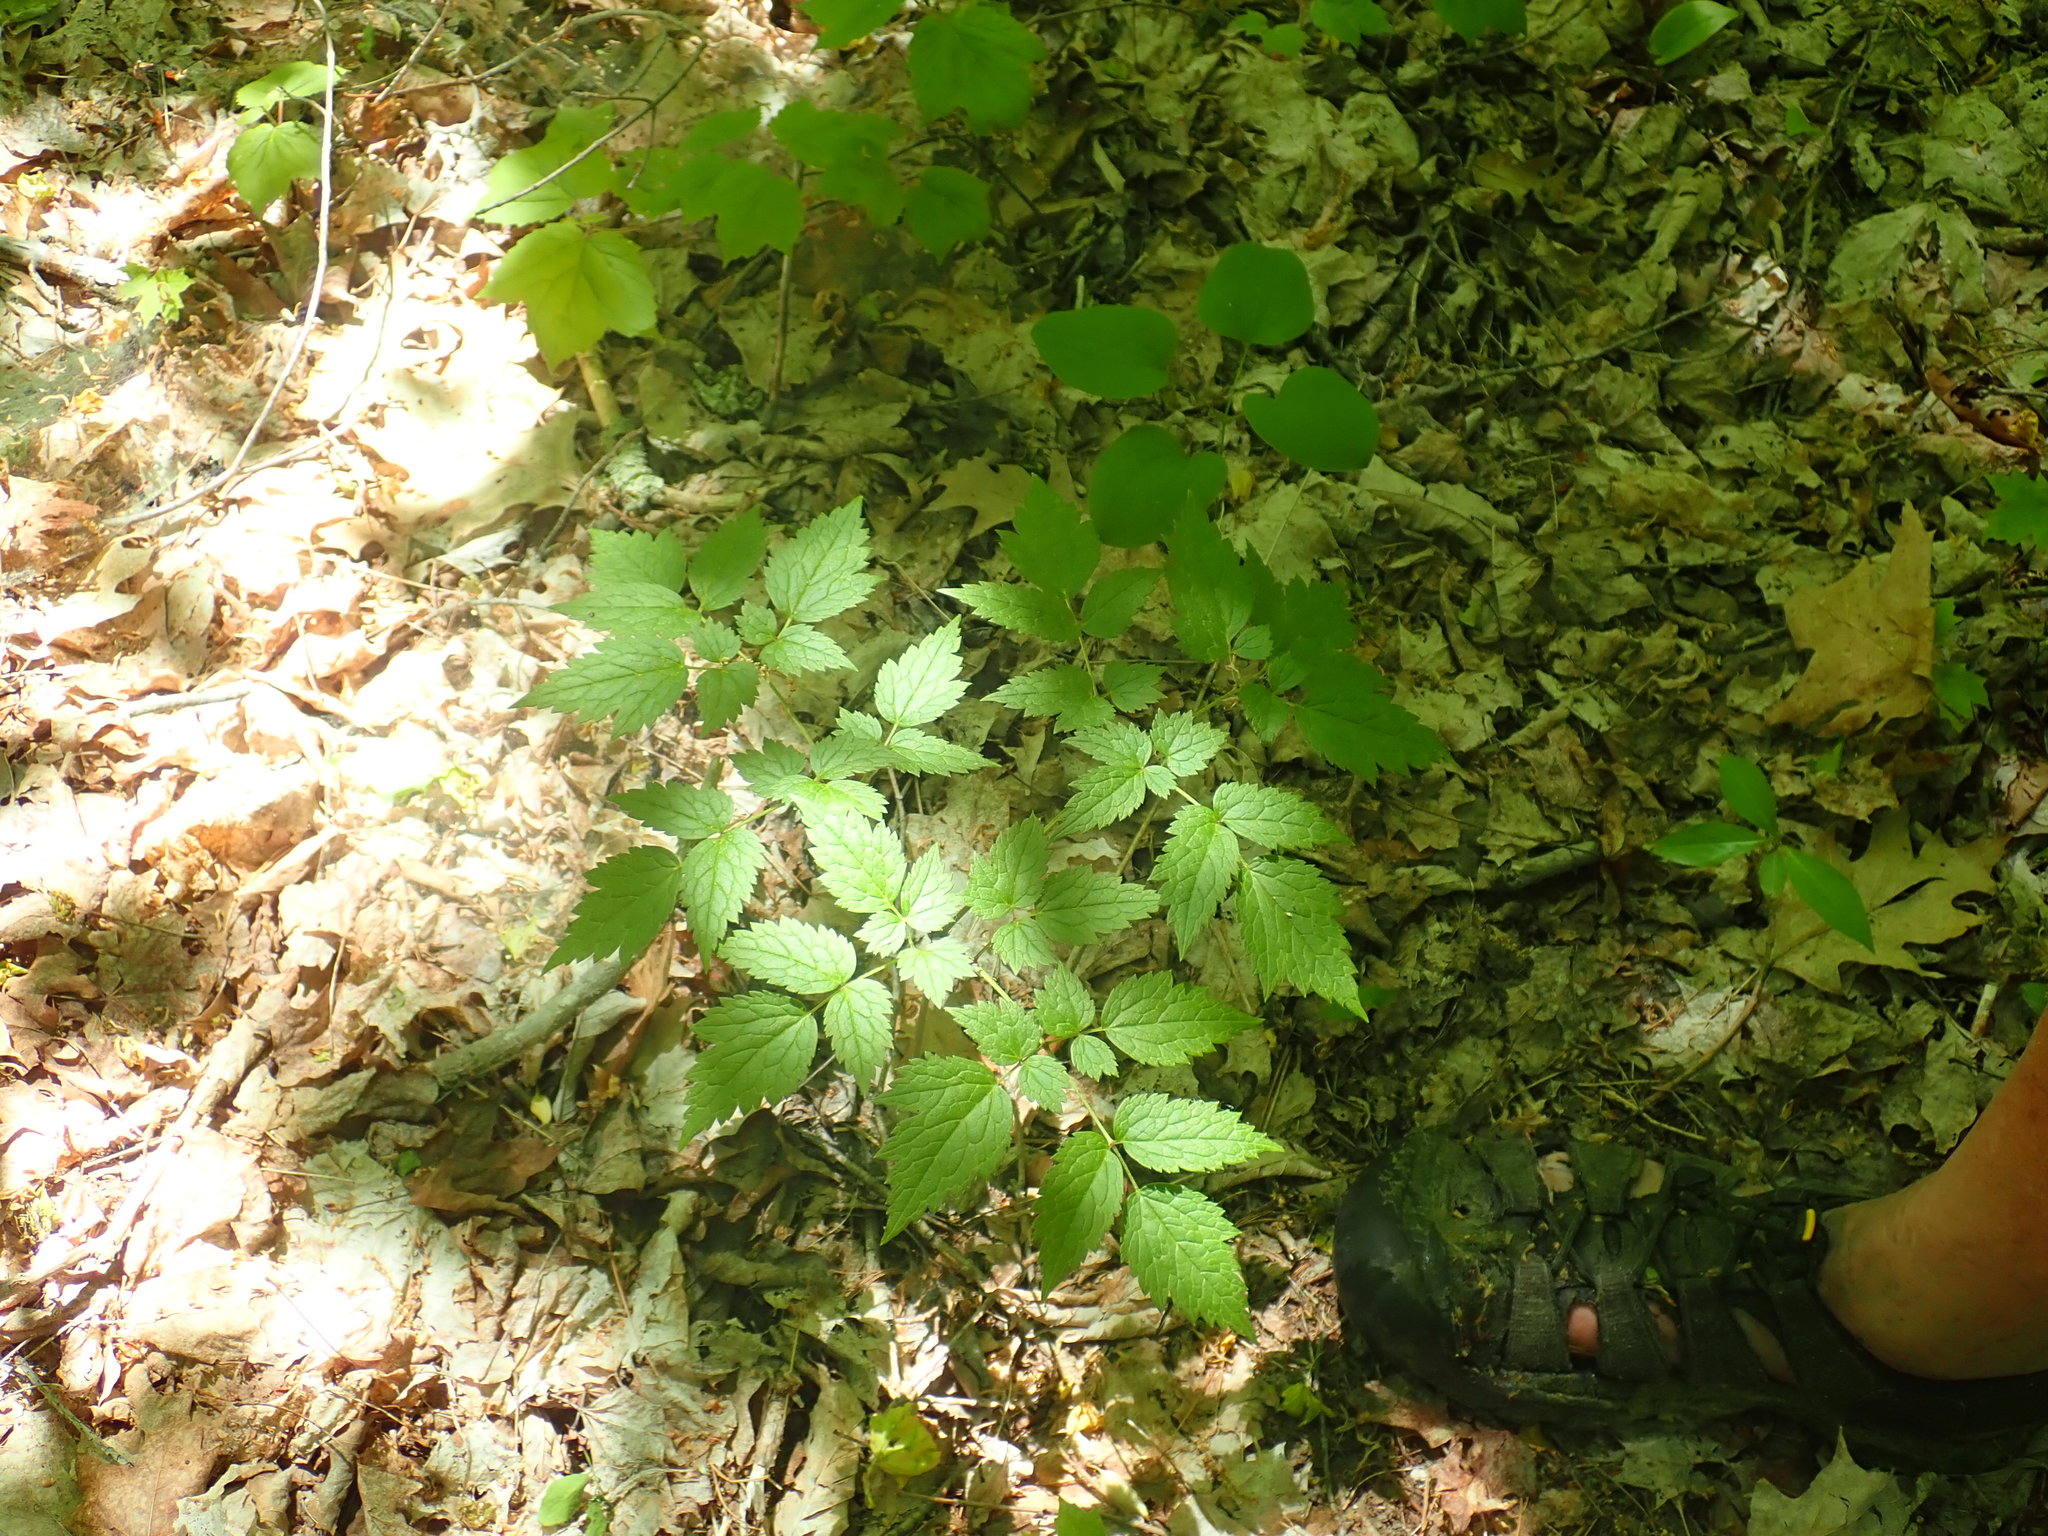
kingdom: Plantae
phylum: Tracheophyta
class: Magnoliopsida
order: Ranunculales
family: Ranunculaceae
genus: Actaea
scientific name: Actaea
